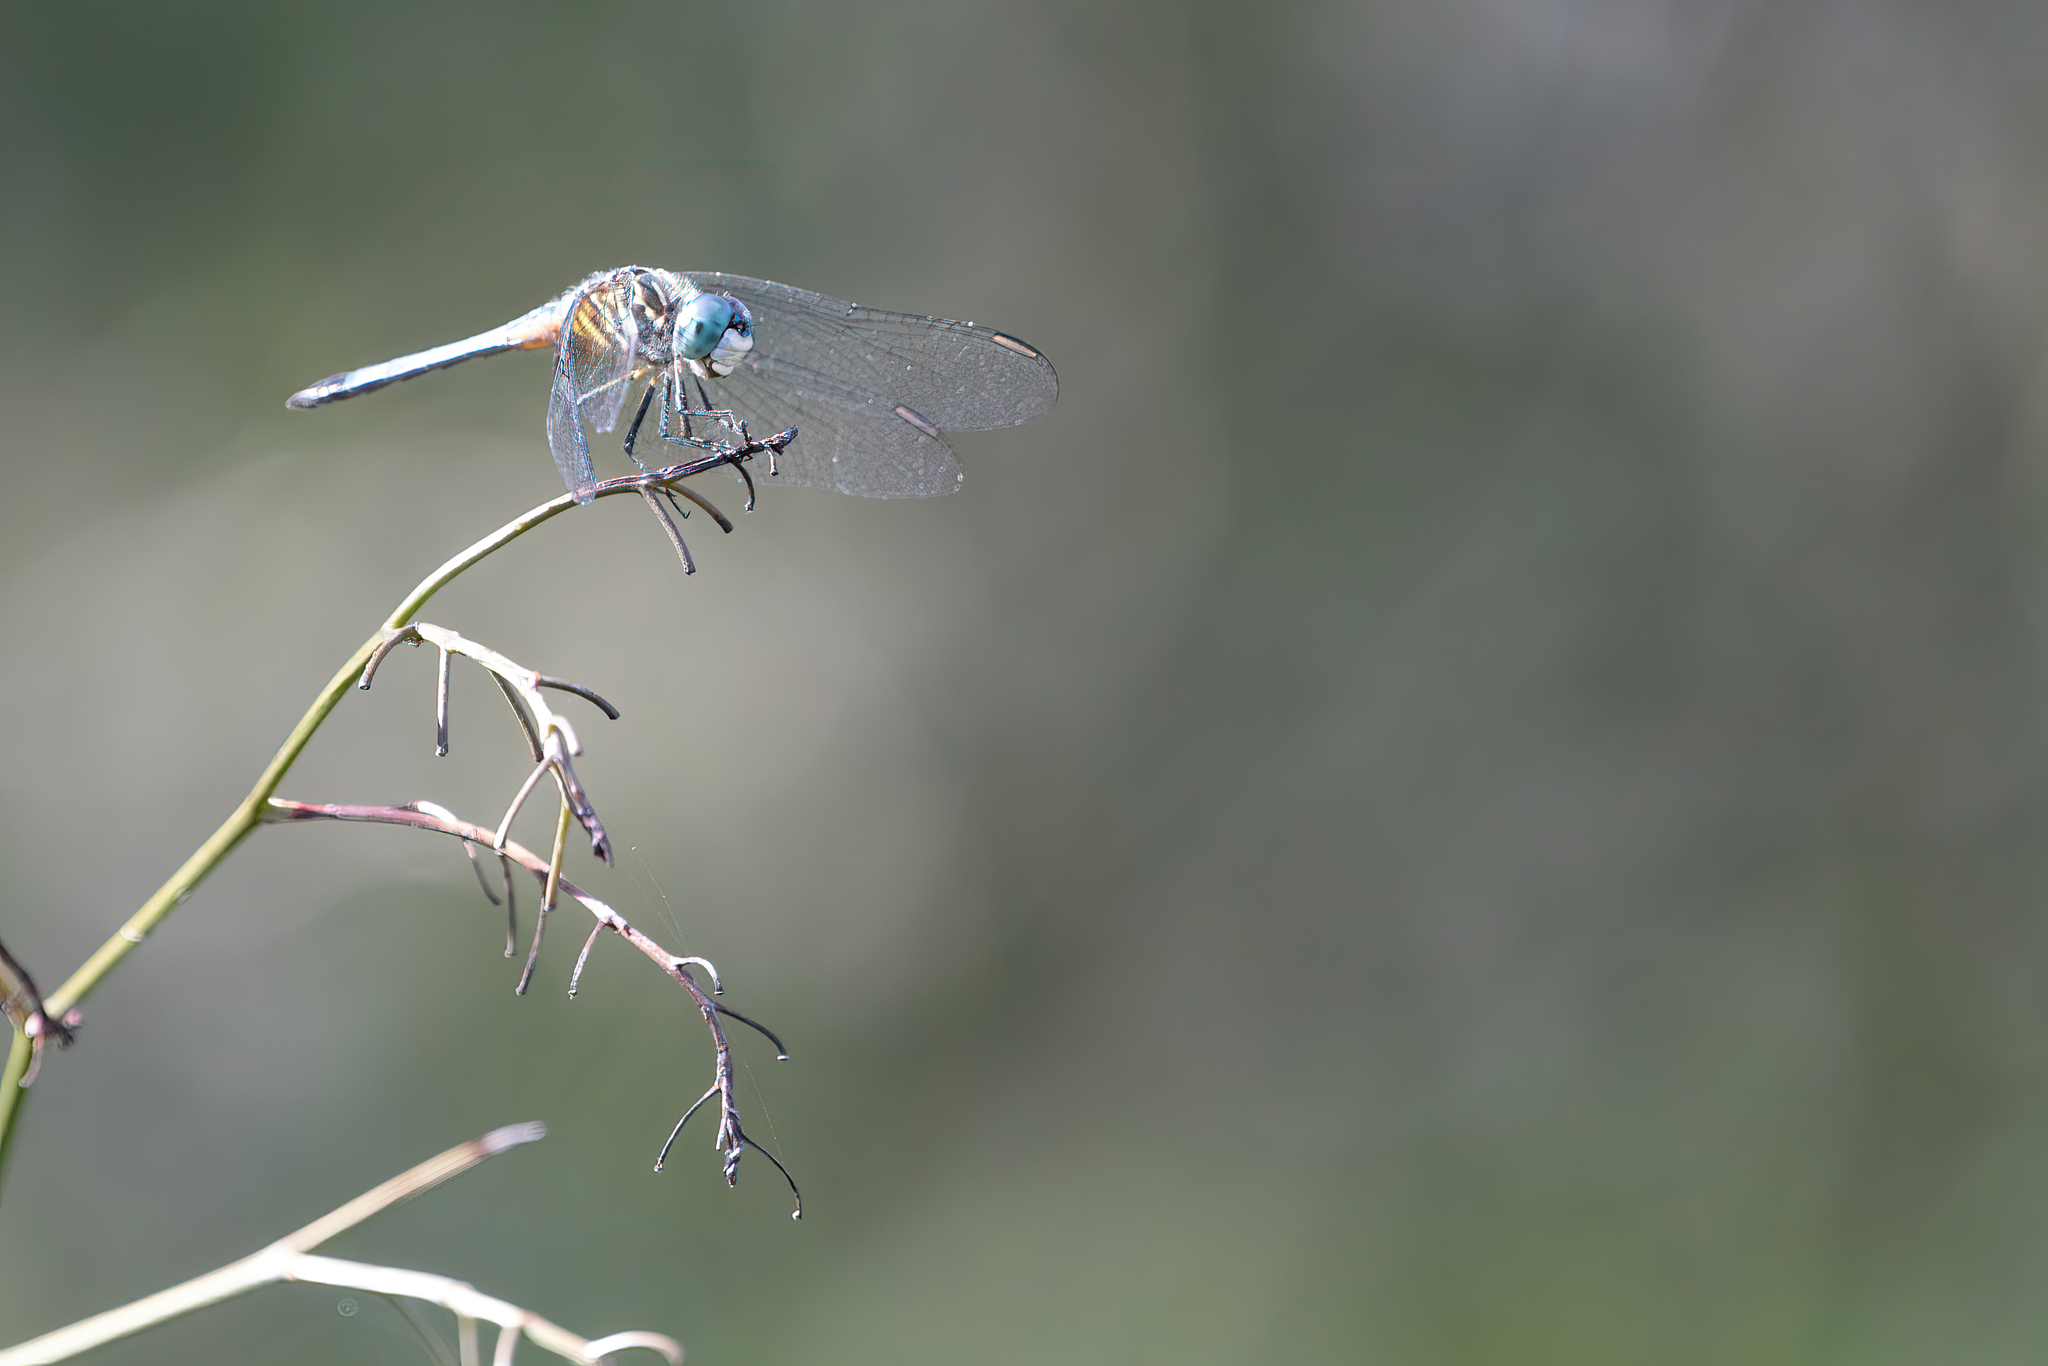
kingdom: Animalia
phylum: Arthropoda
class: Insecta
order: Odonata
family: Libellulidae
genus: Pachydiplax
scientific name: Pachydiplax longipennis
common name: Blue dasher
